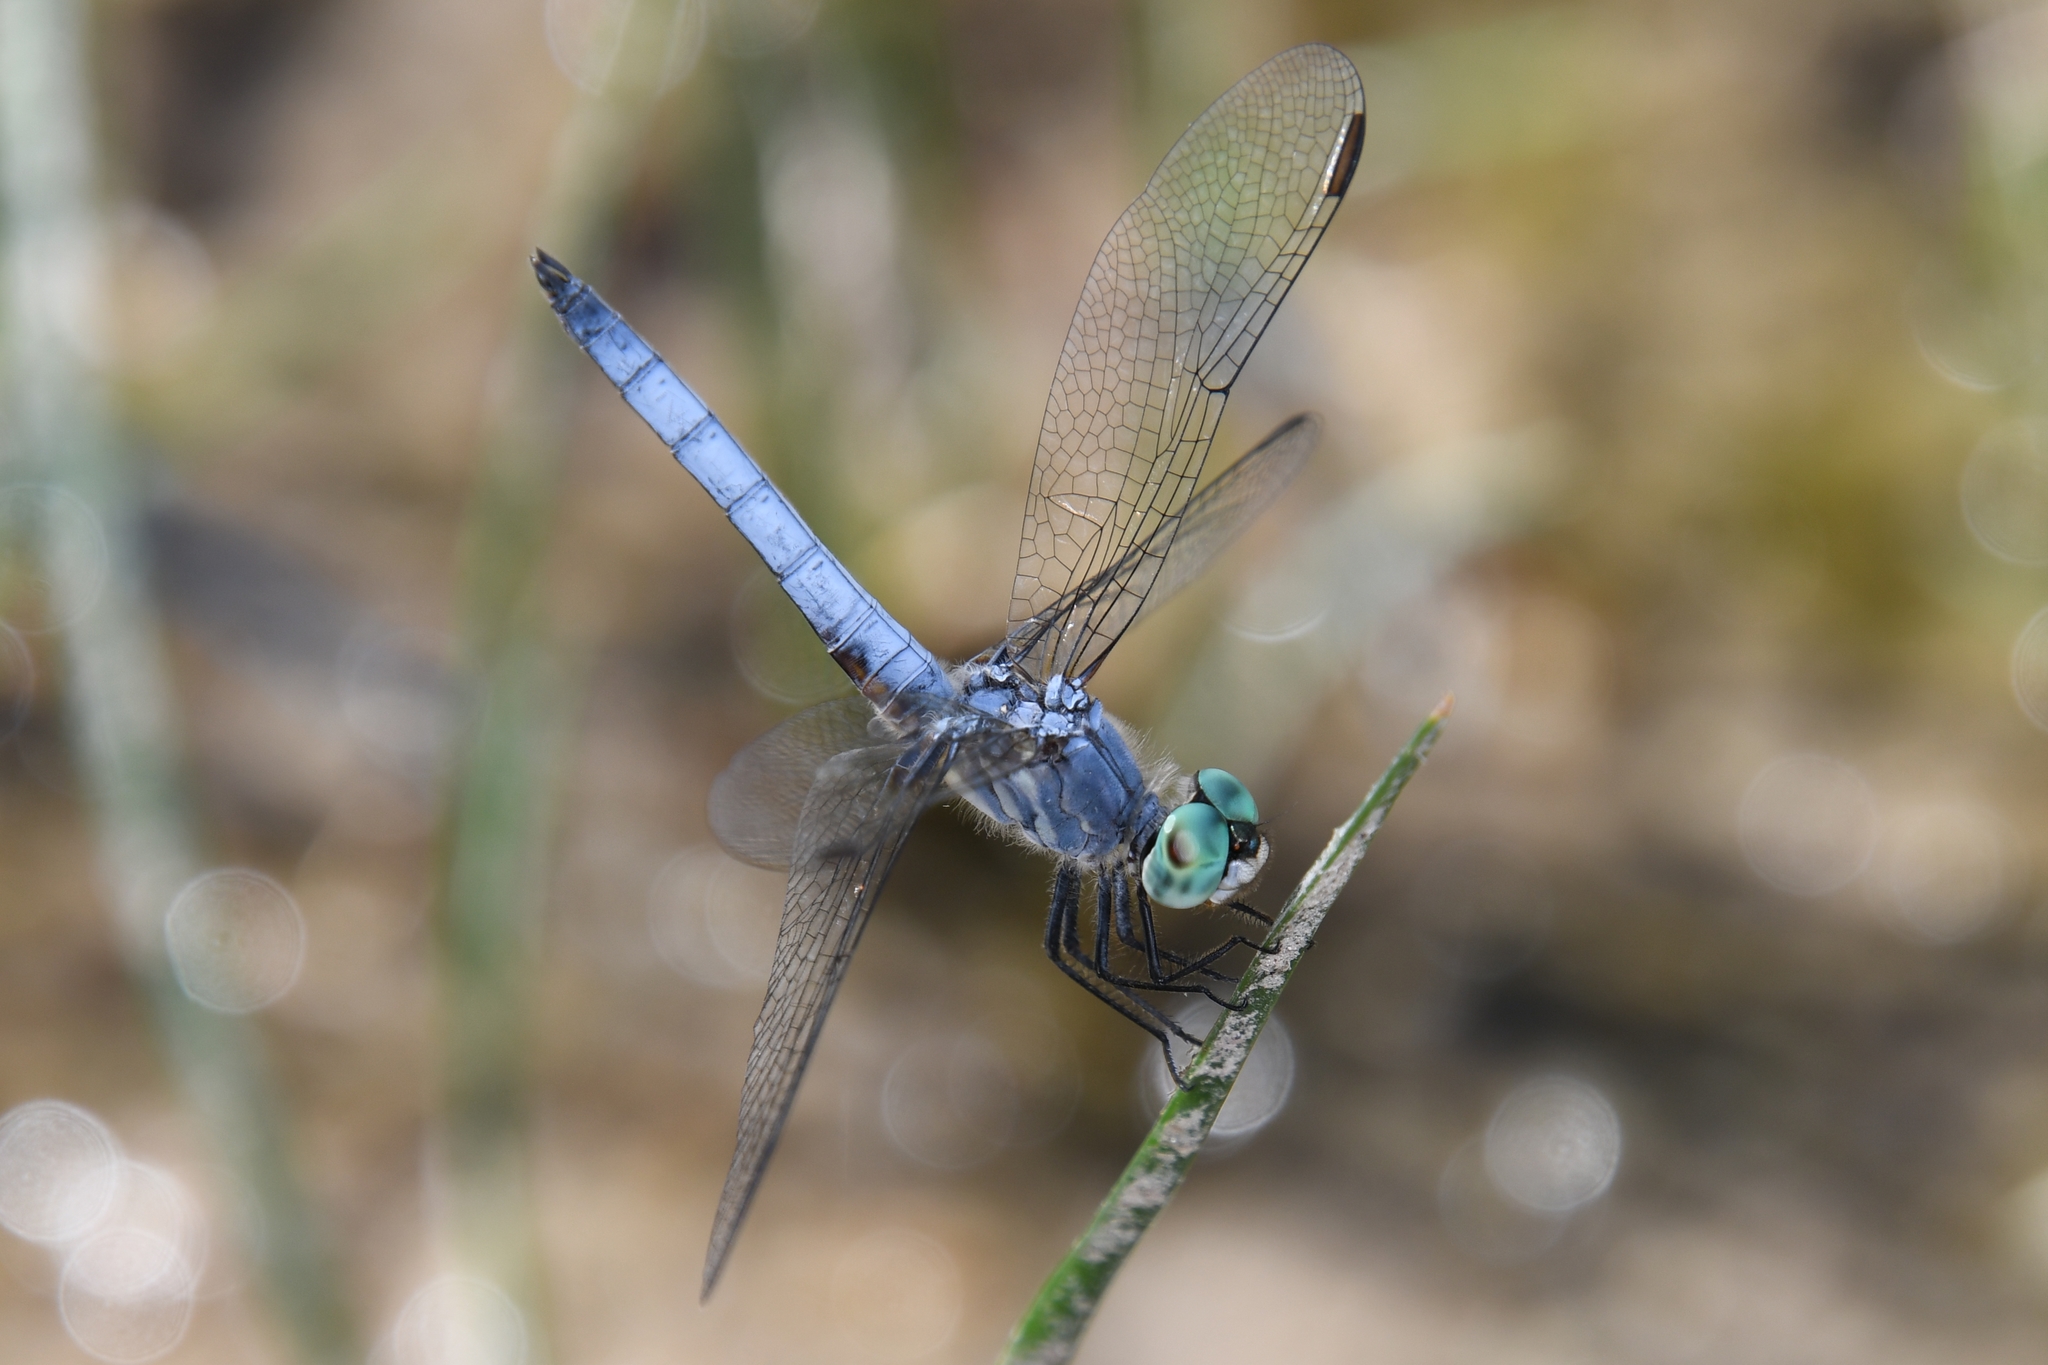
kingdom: Animalia
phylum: Arthropoda
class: Insecta
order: Odonata
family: Libellulidae
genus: Pachydiplax
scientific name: Pachydiplax longipennis
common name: Blue dasher
